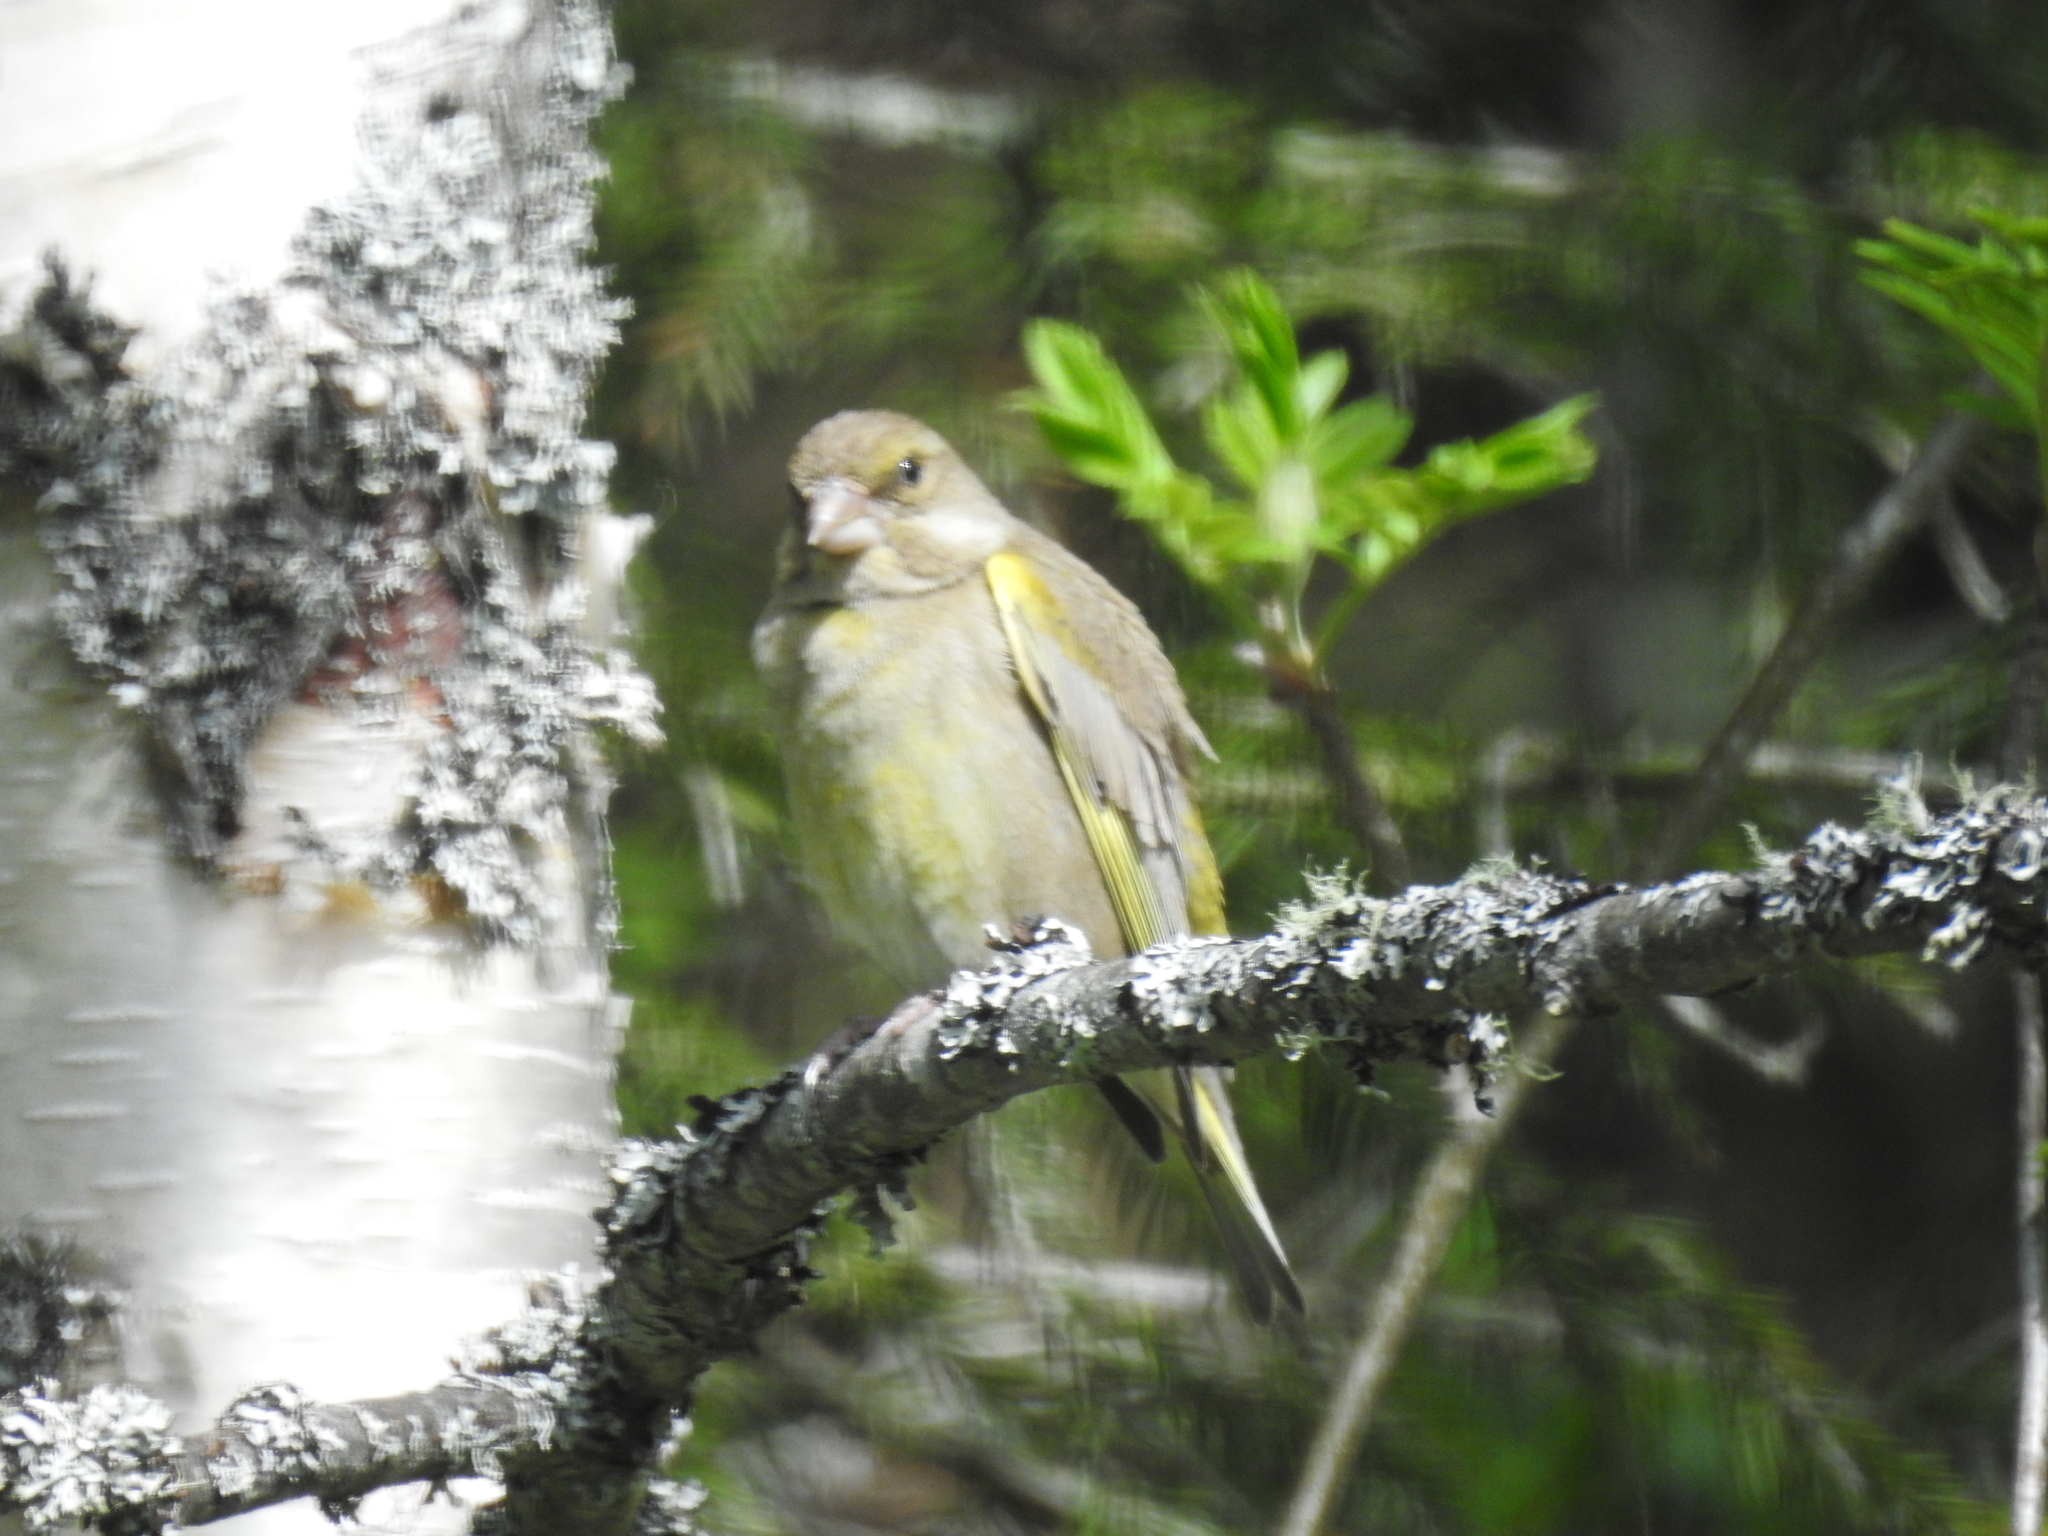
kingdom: Plantae
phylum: Tracheophyta
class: Liliopsida
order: Poales
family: Poaceae
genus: Chloris
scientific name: Chloris chloris
